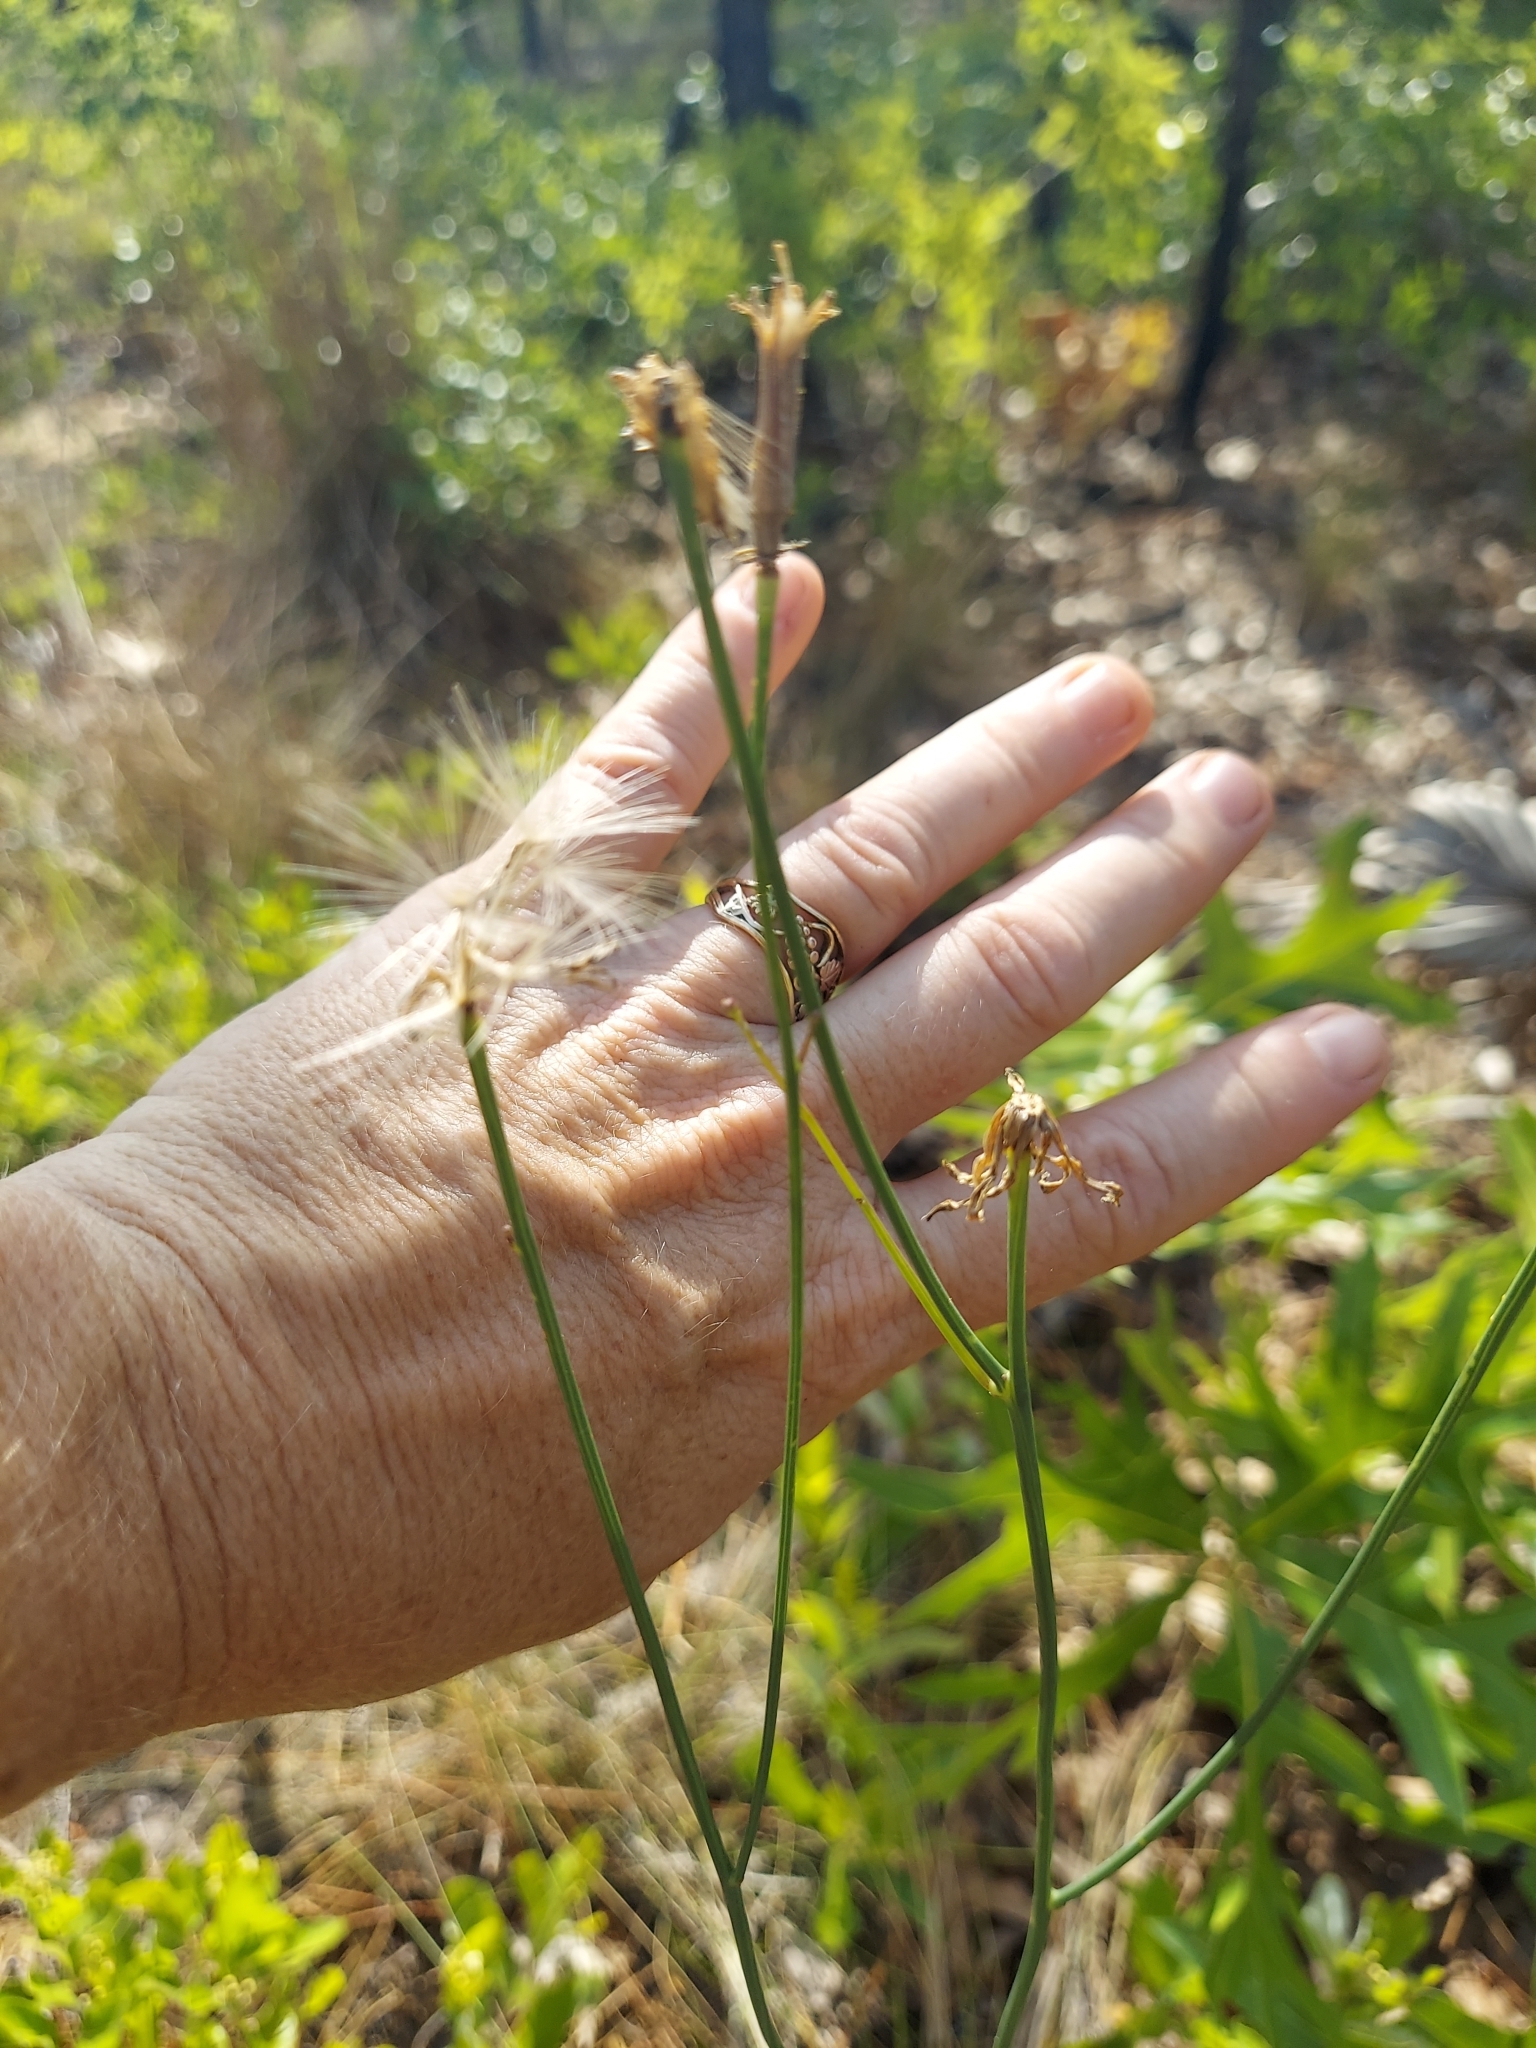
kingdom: Plantae
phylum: Tracheophyta
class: Magnoliopsida
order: Asterales
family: Asteraceae
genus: Lygodesmia
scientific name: Lygodesmia aphylla
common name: Rose-rush
